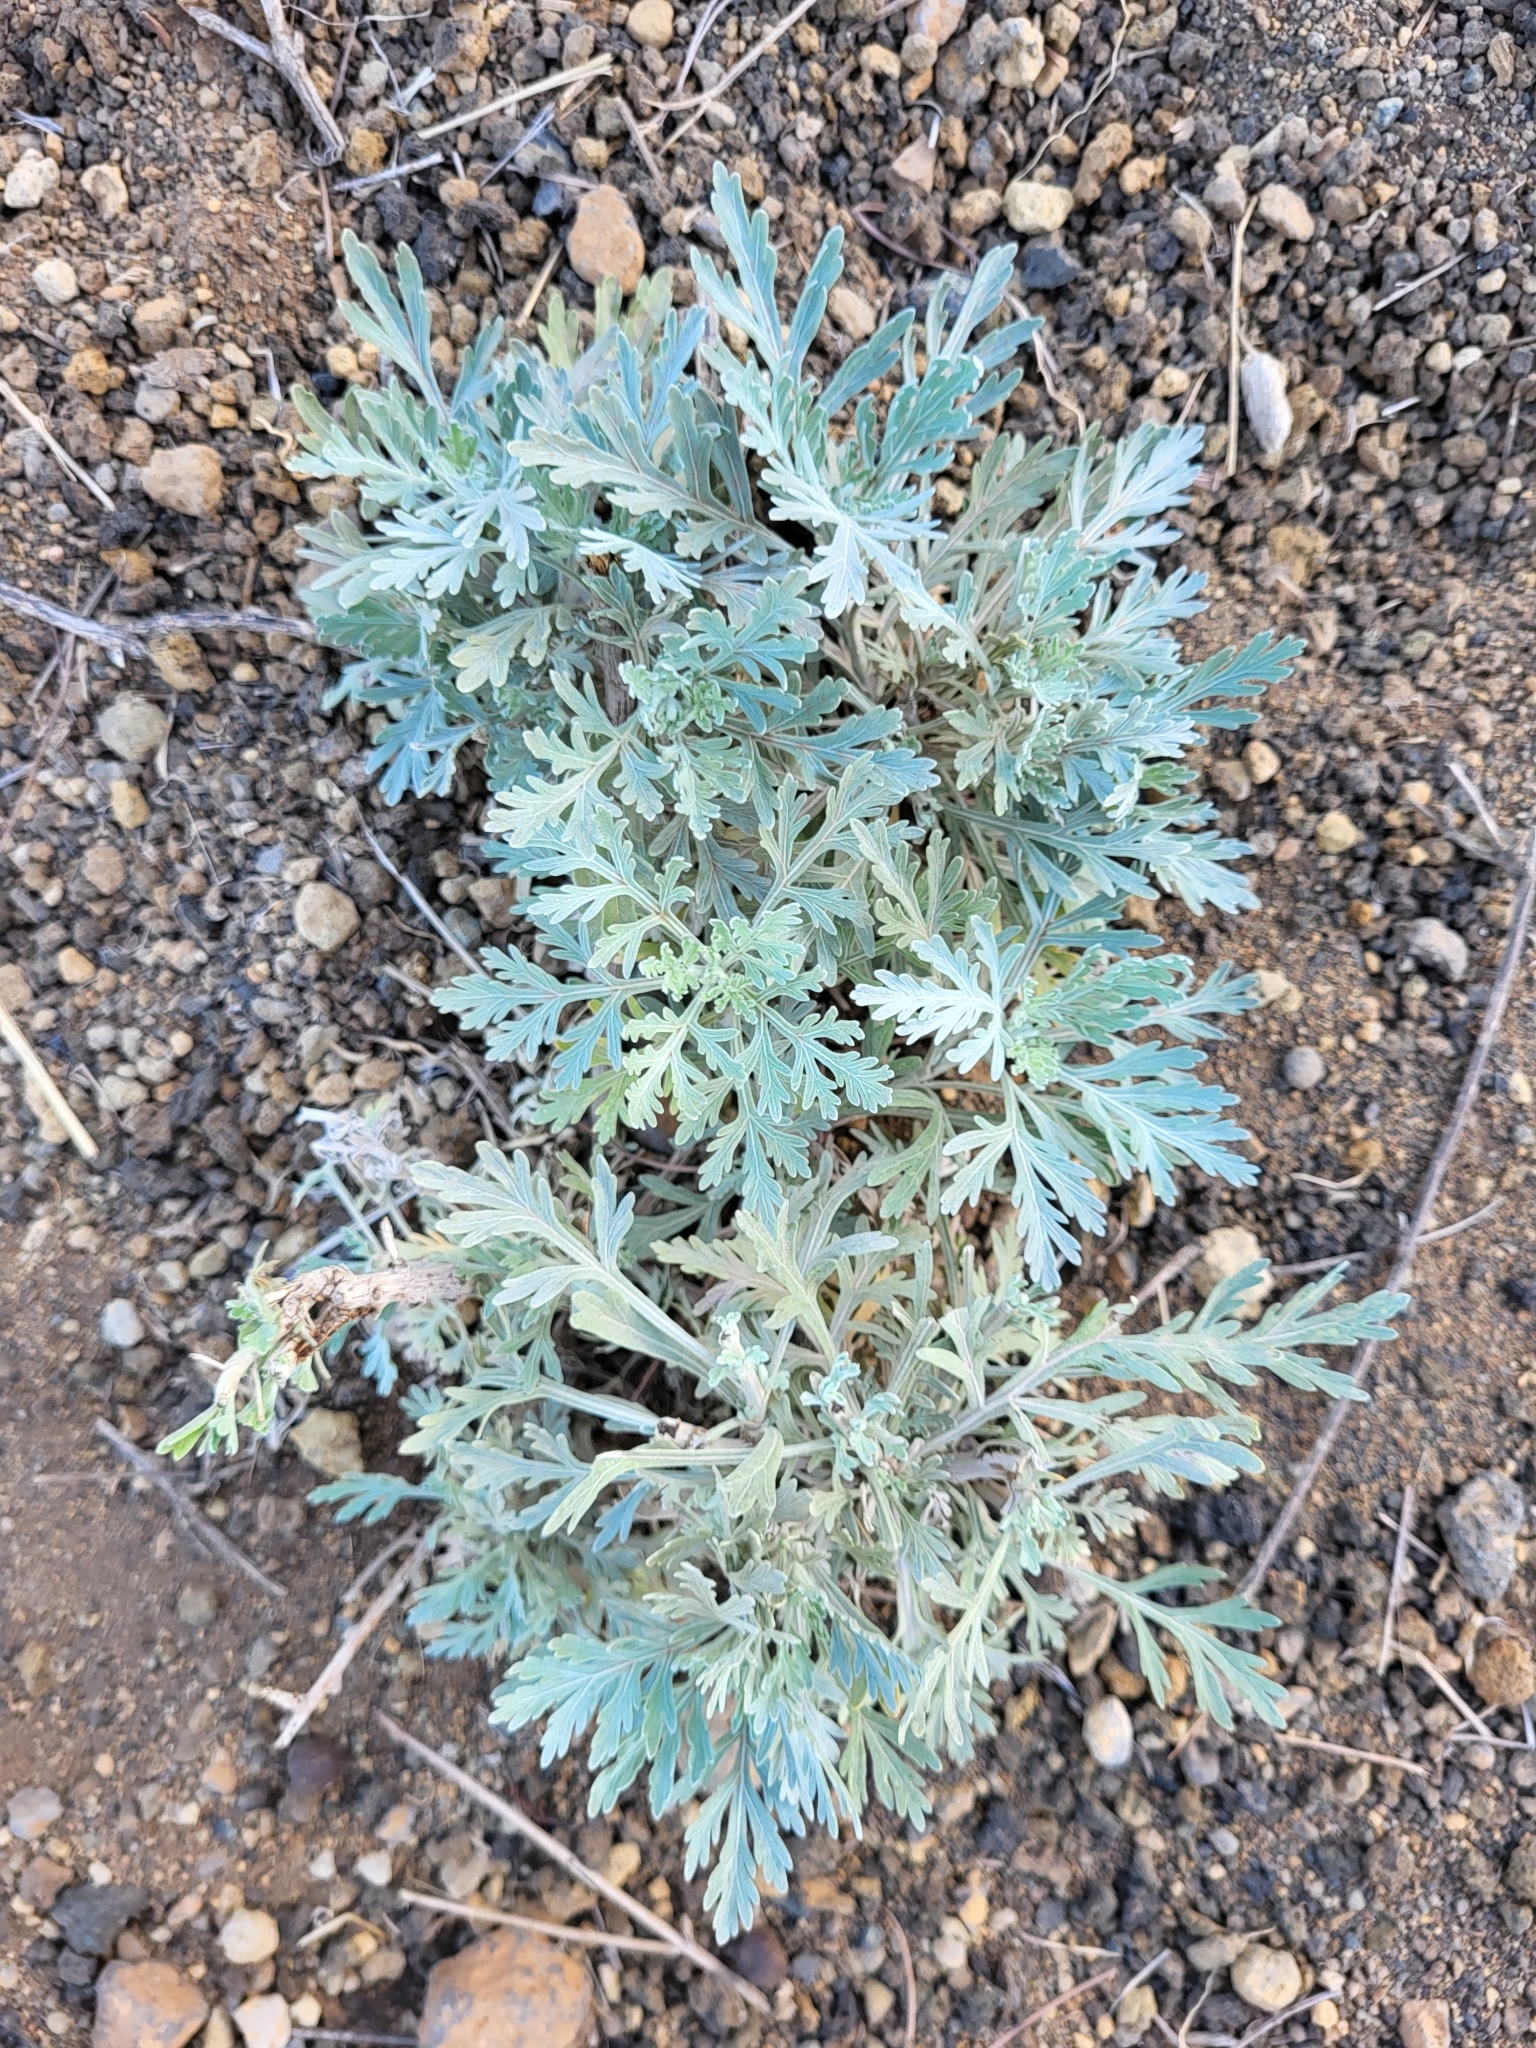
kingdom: Plantae
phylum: Tracheophyta
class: Magnoliopsida
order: Asterales
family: Asteraceae
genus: Artemisia
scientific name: Artemisia gorgonum
